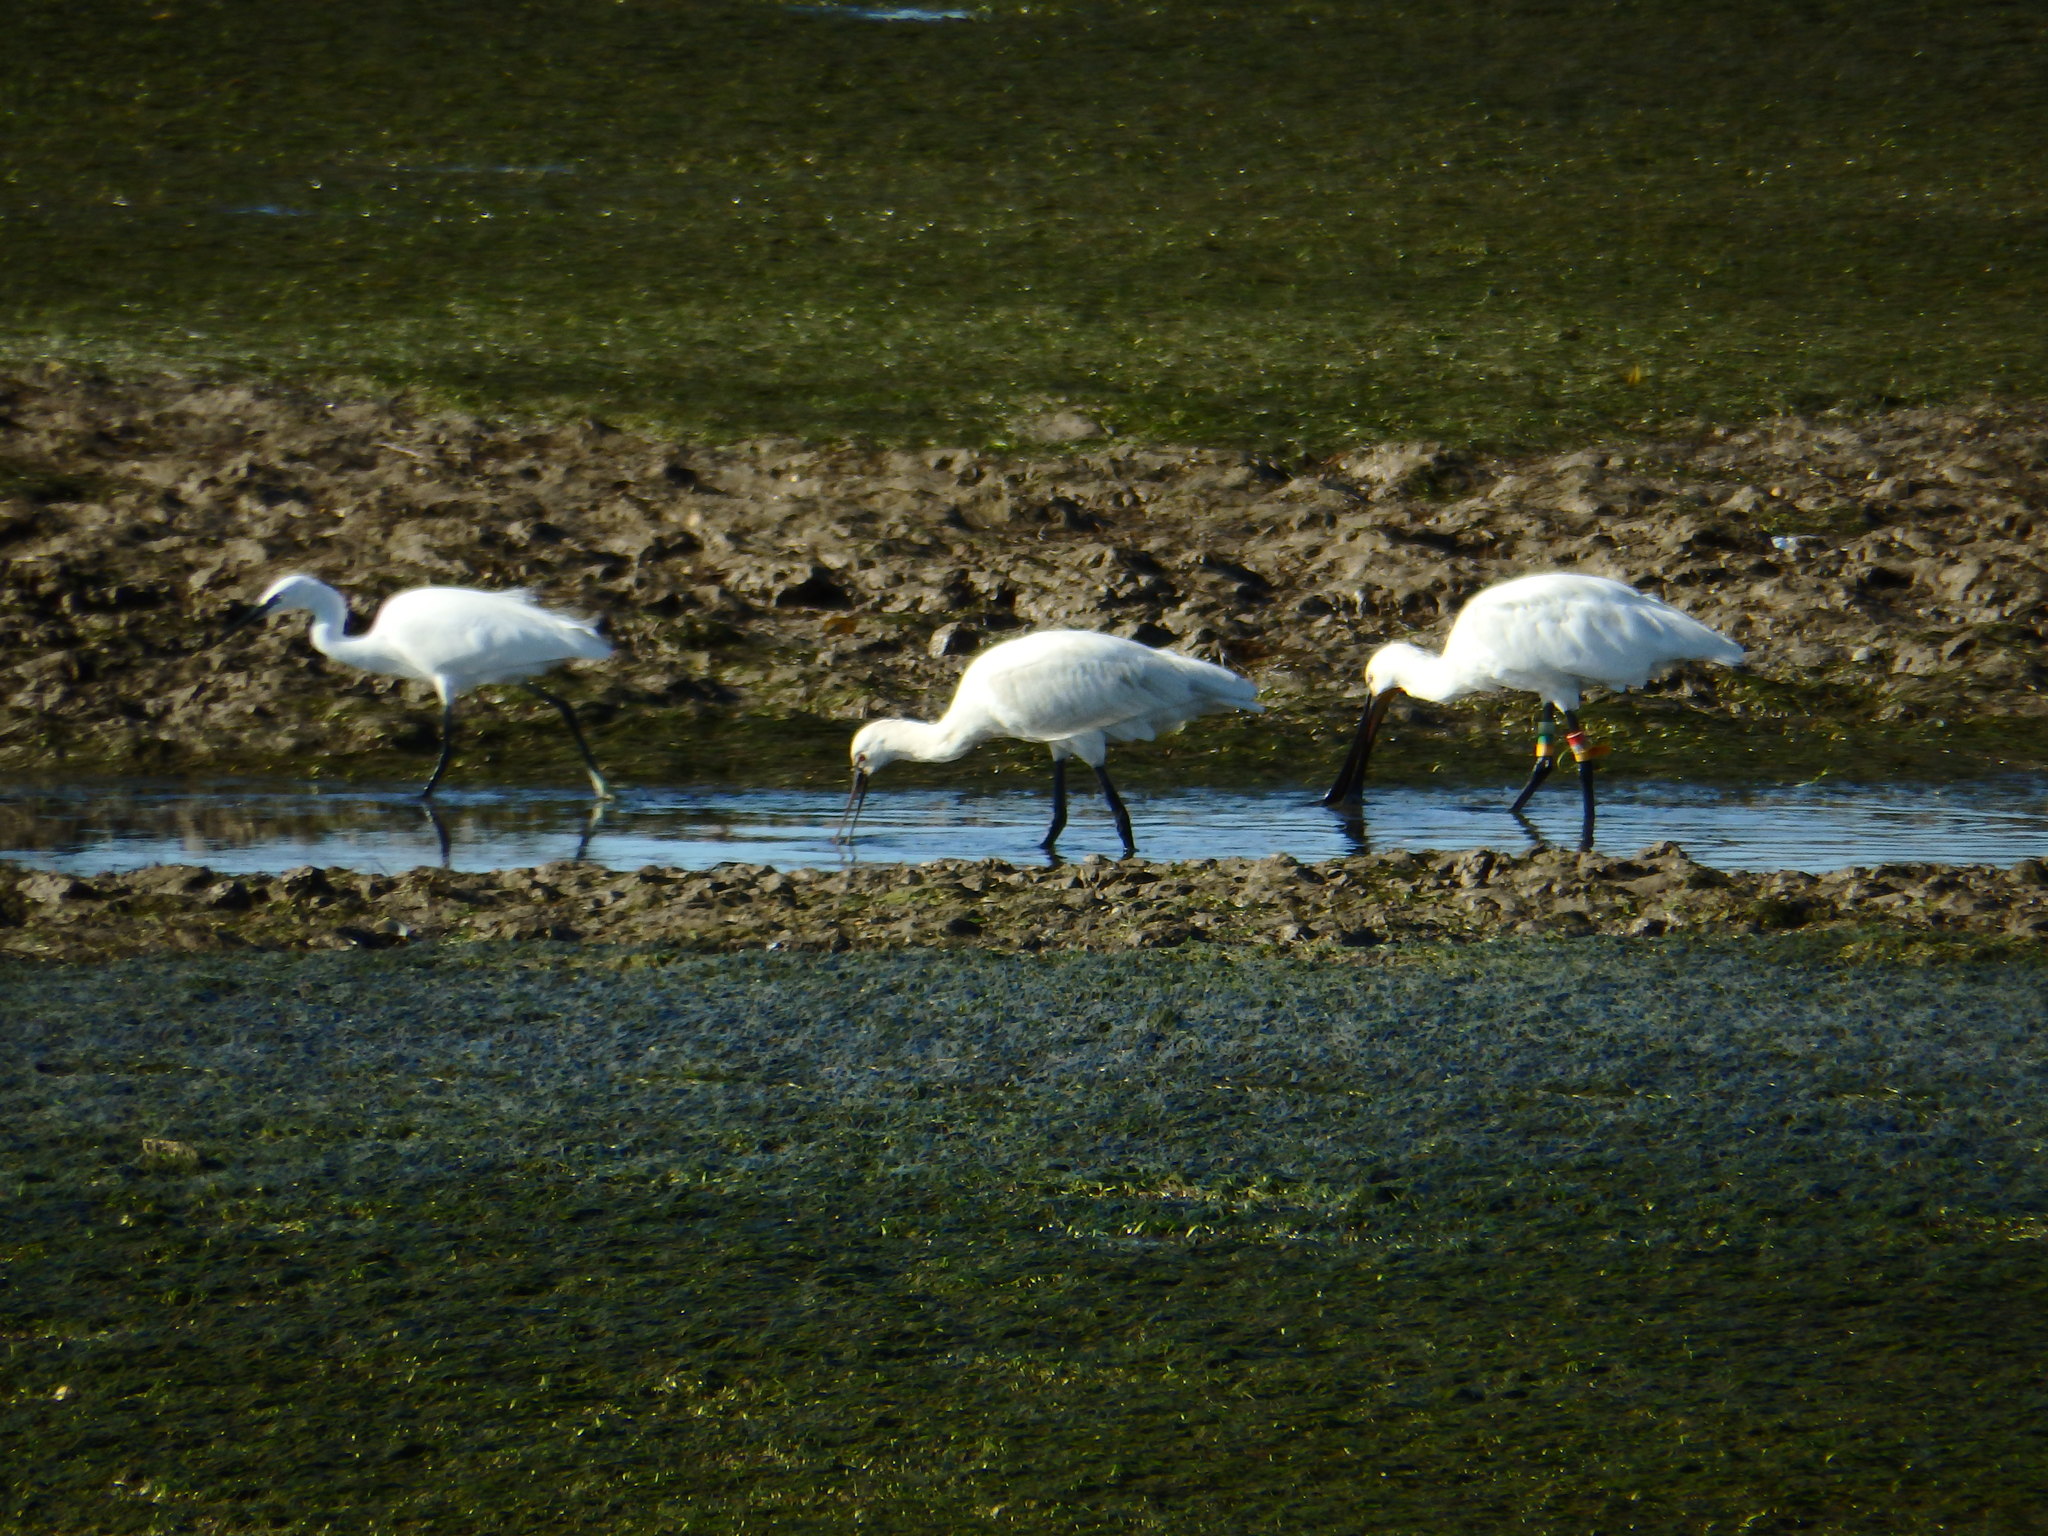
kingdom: Animalia
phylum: Chordata
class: Aves
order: Pelecaniformes
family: Threskiornithidae
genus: Platalea
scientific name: Platalea leucorodia
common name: Eurasian spoonbill
